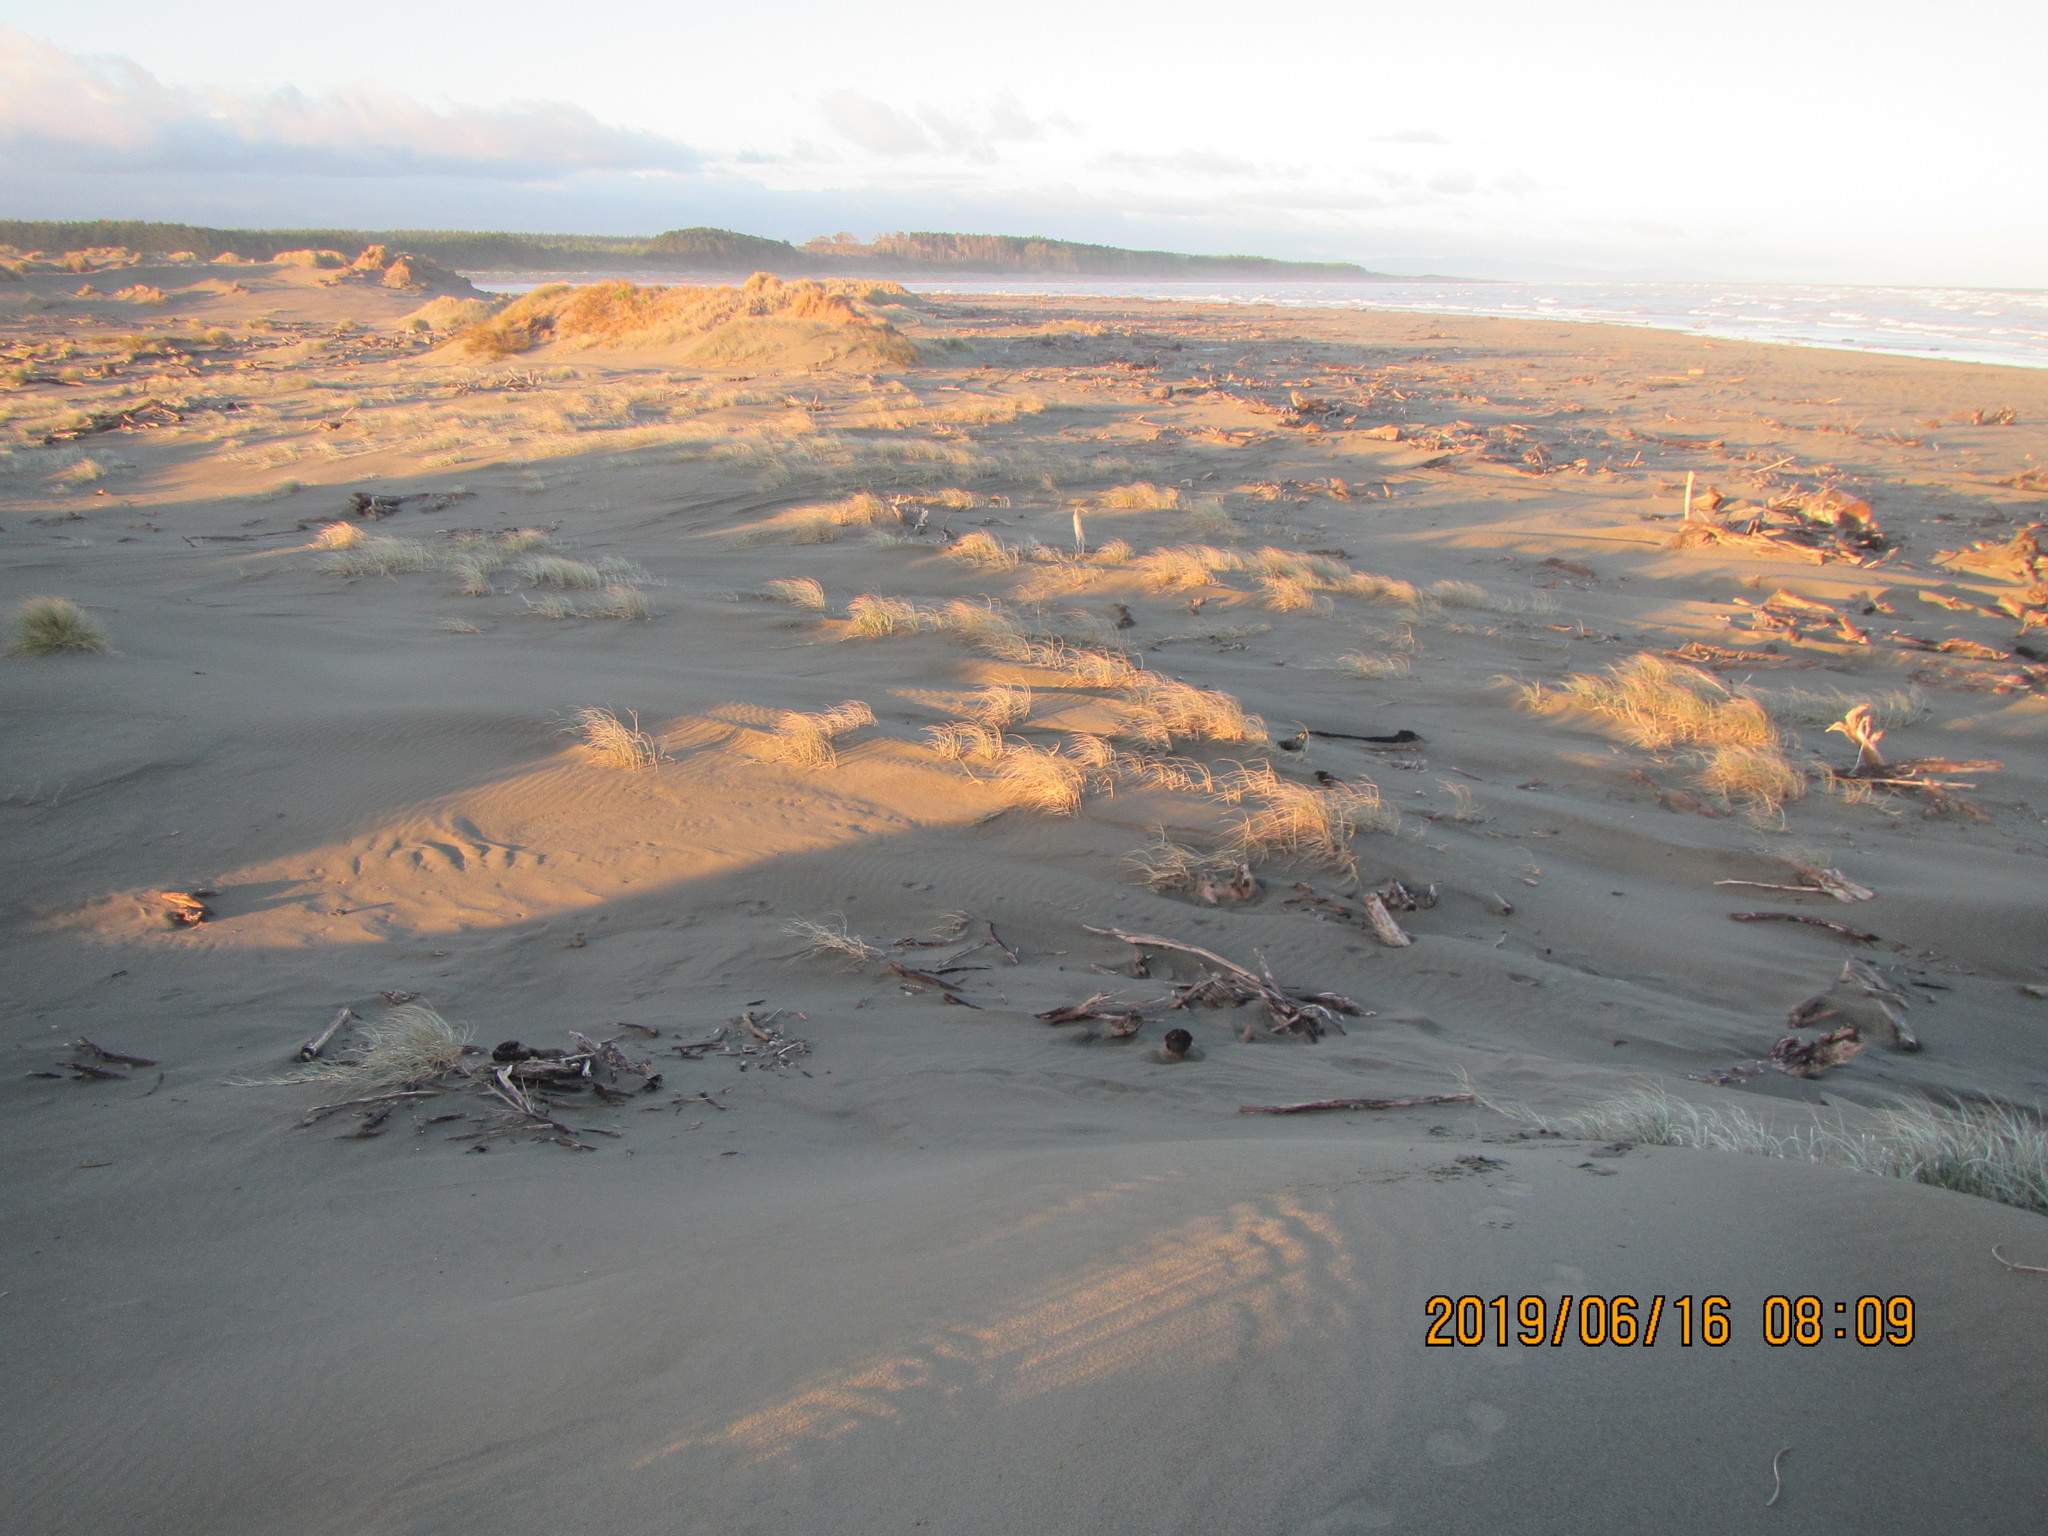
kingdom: Plantae
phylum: Tracheophyta
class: Liliopsida
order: Poales
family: Poaceae
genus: Spinifex
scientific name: Spinifex sericeus
